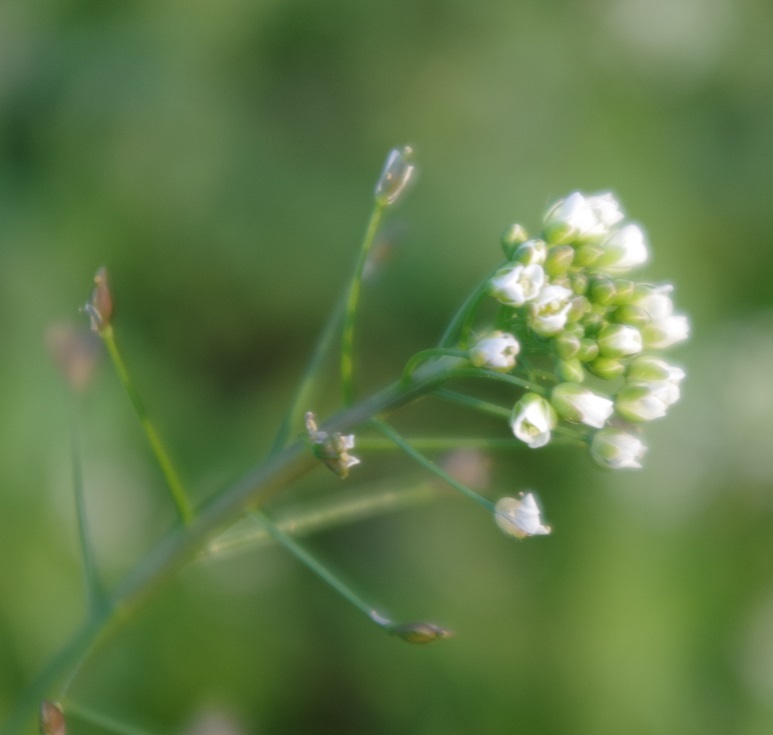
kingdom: Plantae
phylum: Tracheophyta
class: Magnoliopsida
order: Brassicales
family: Brassicaceae
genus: Capsella
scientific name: Capsella bursa-pastoris
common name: Shepherd's purse
